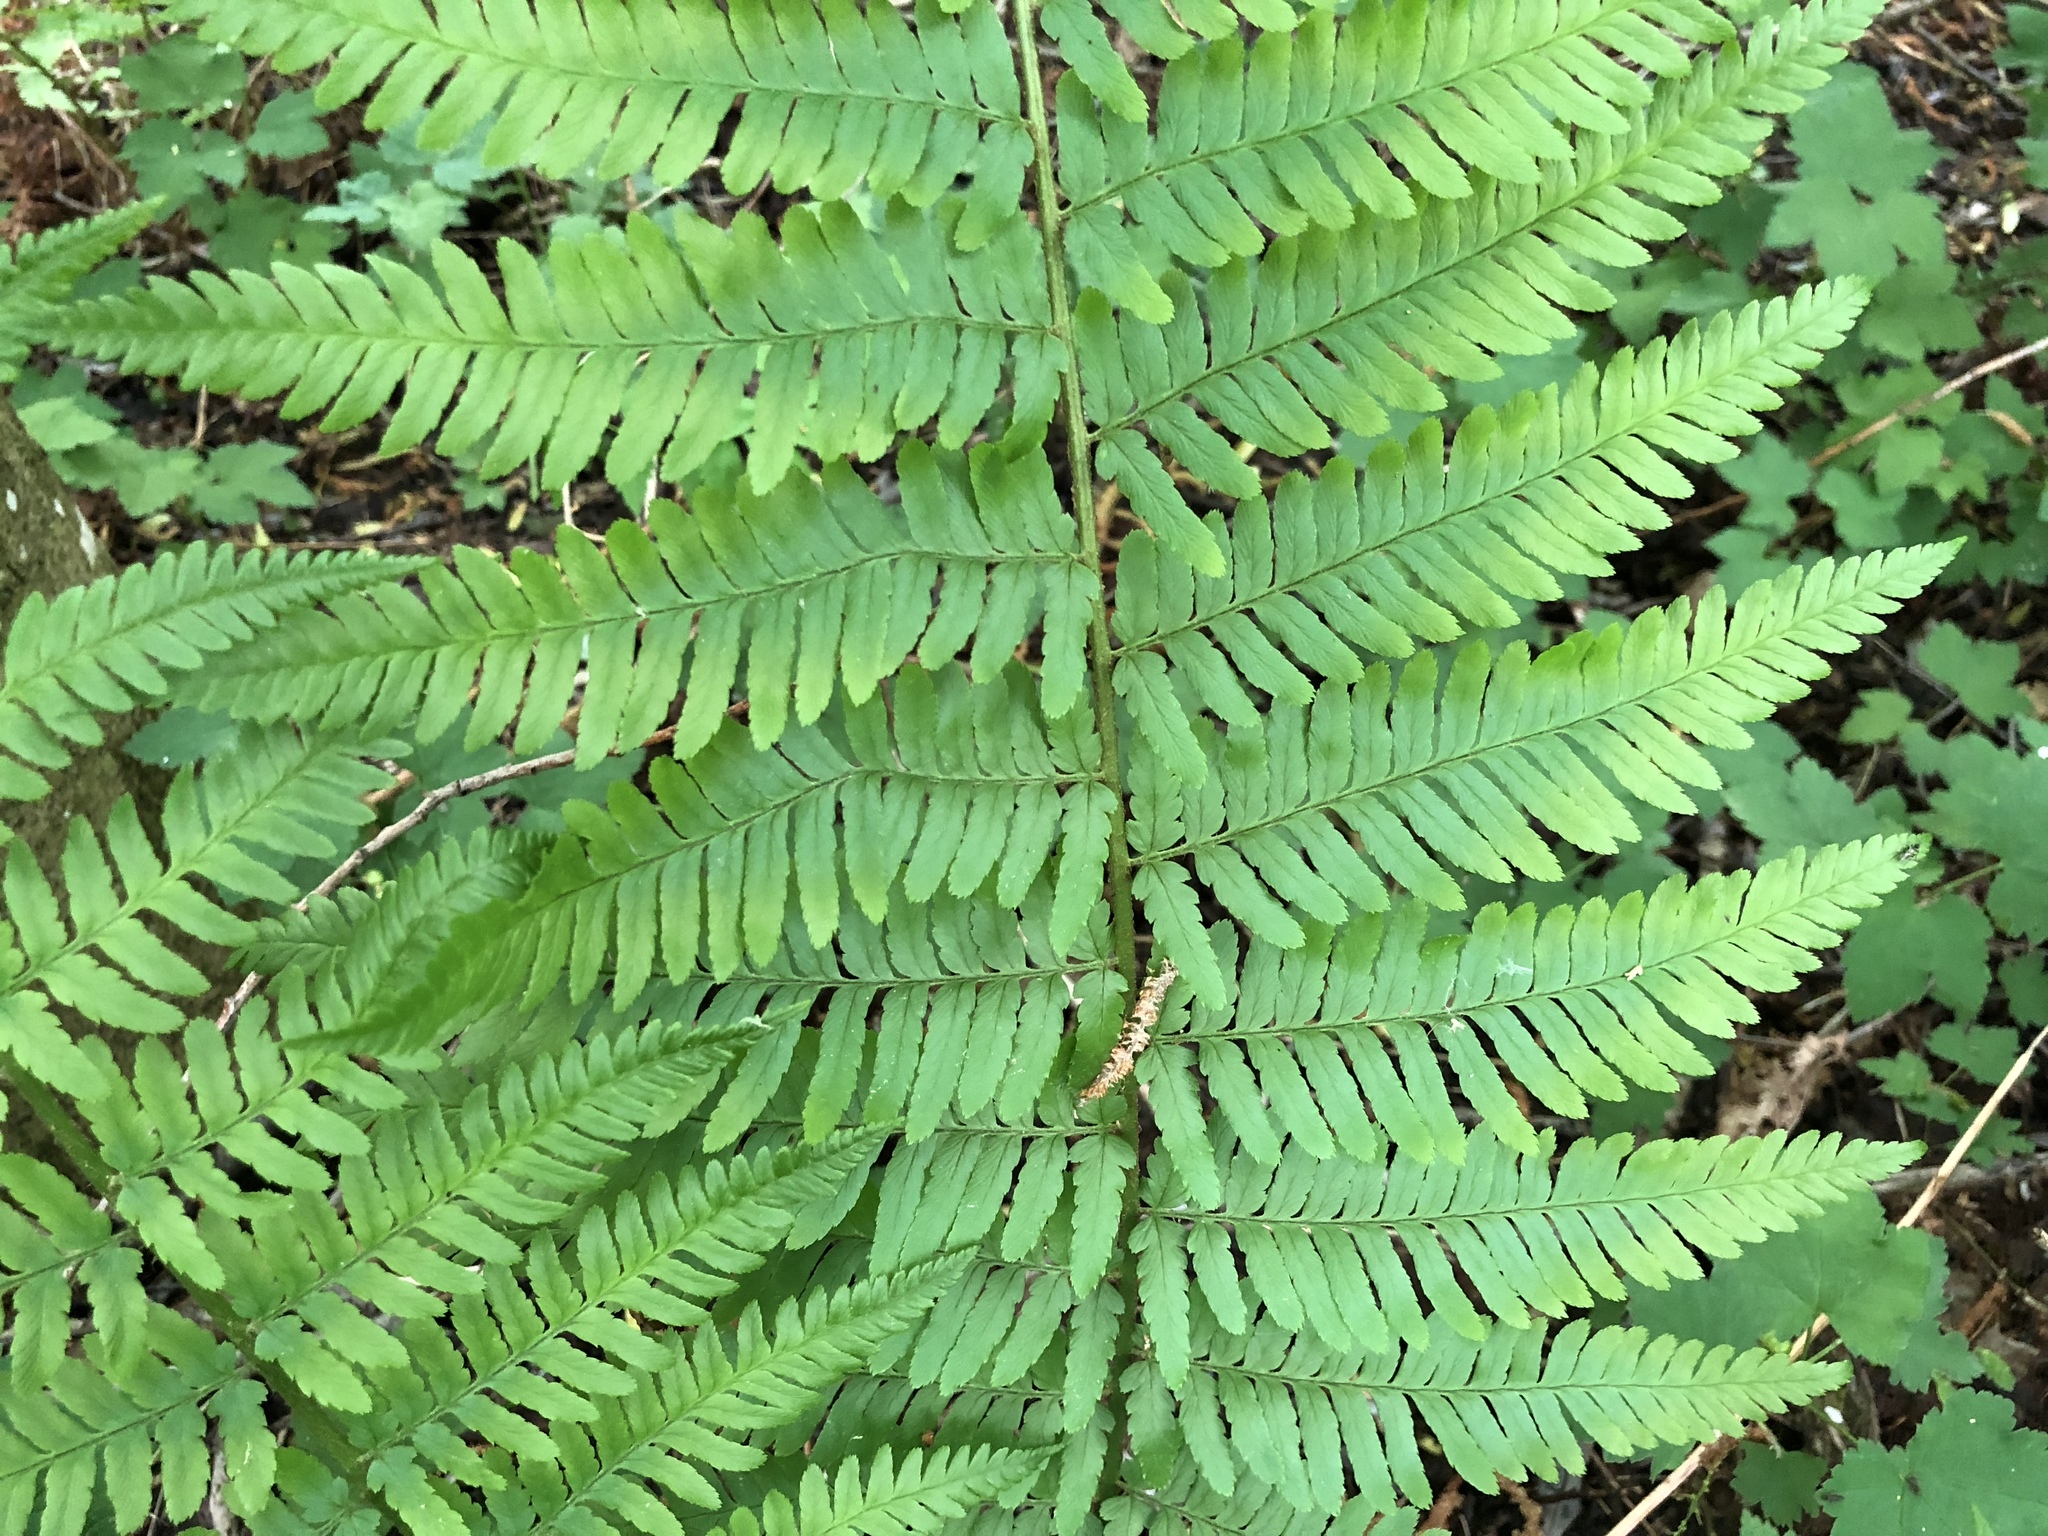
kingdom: Plantae
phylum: Tracheophyta
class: Polypodiopsida
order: Polypodiales
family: Dryopteridaceae
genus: Dryopteris
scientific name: Dryopteris filix-mas
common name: Male fern
